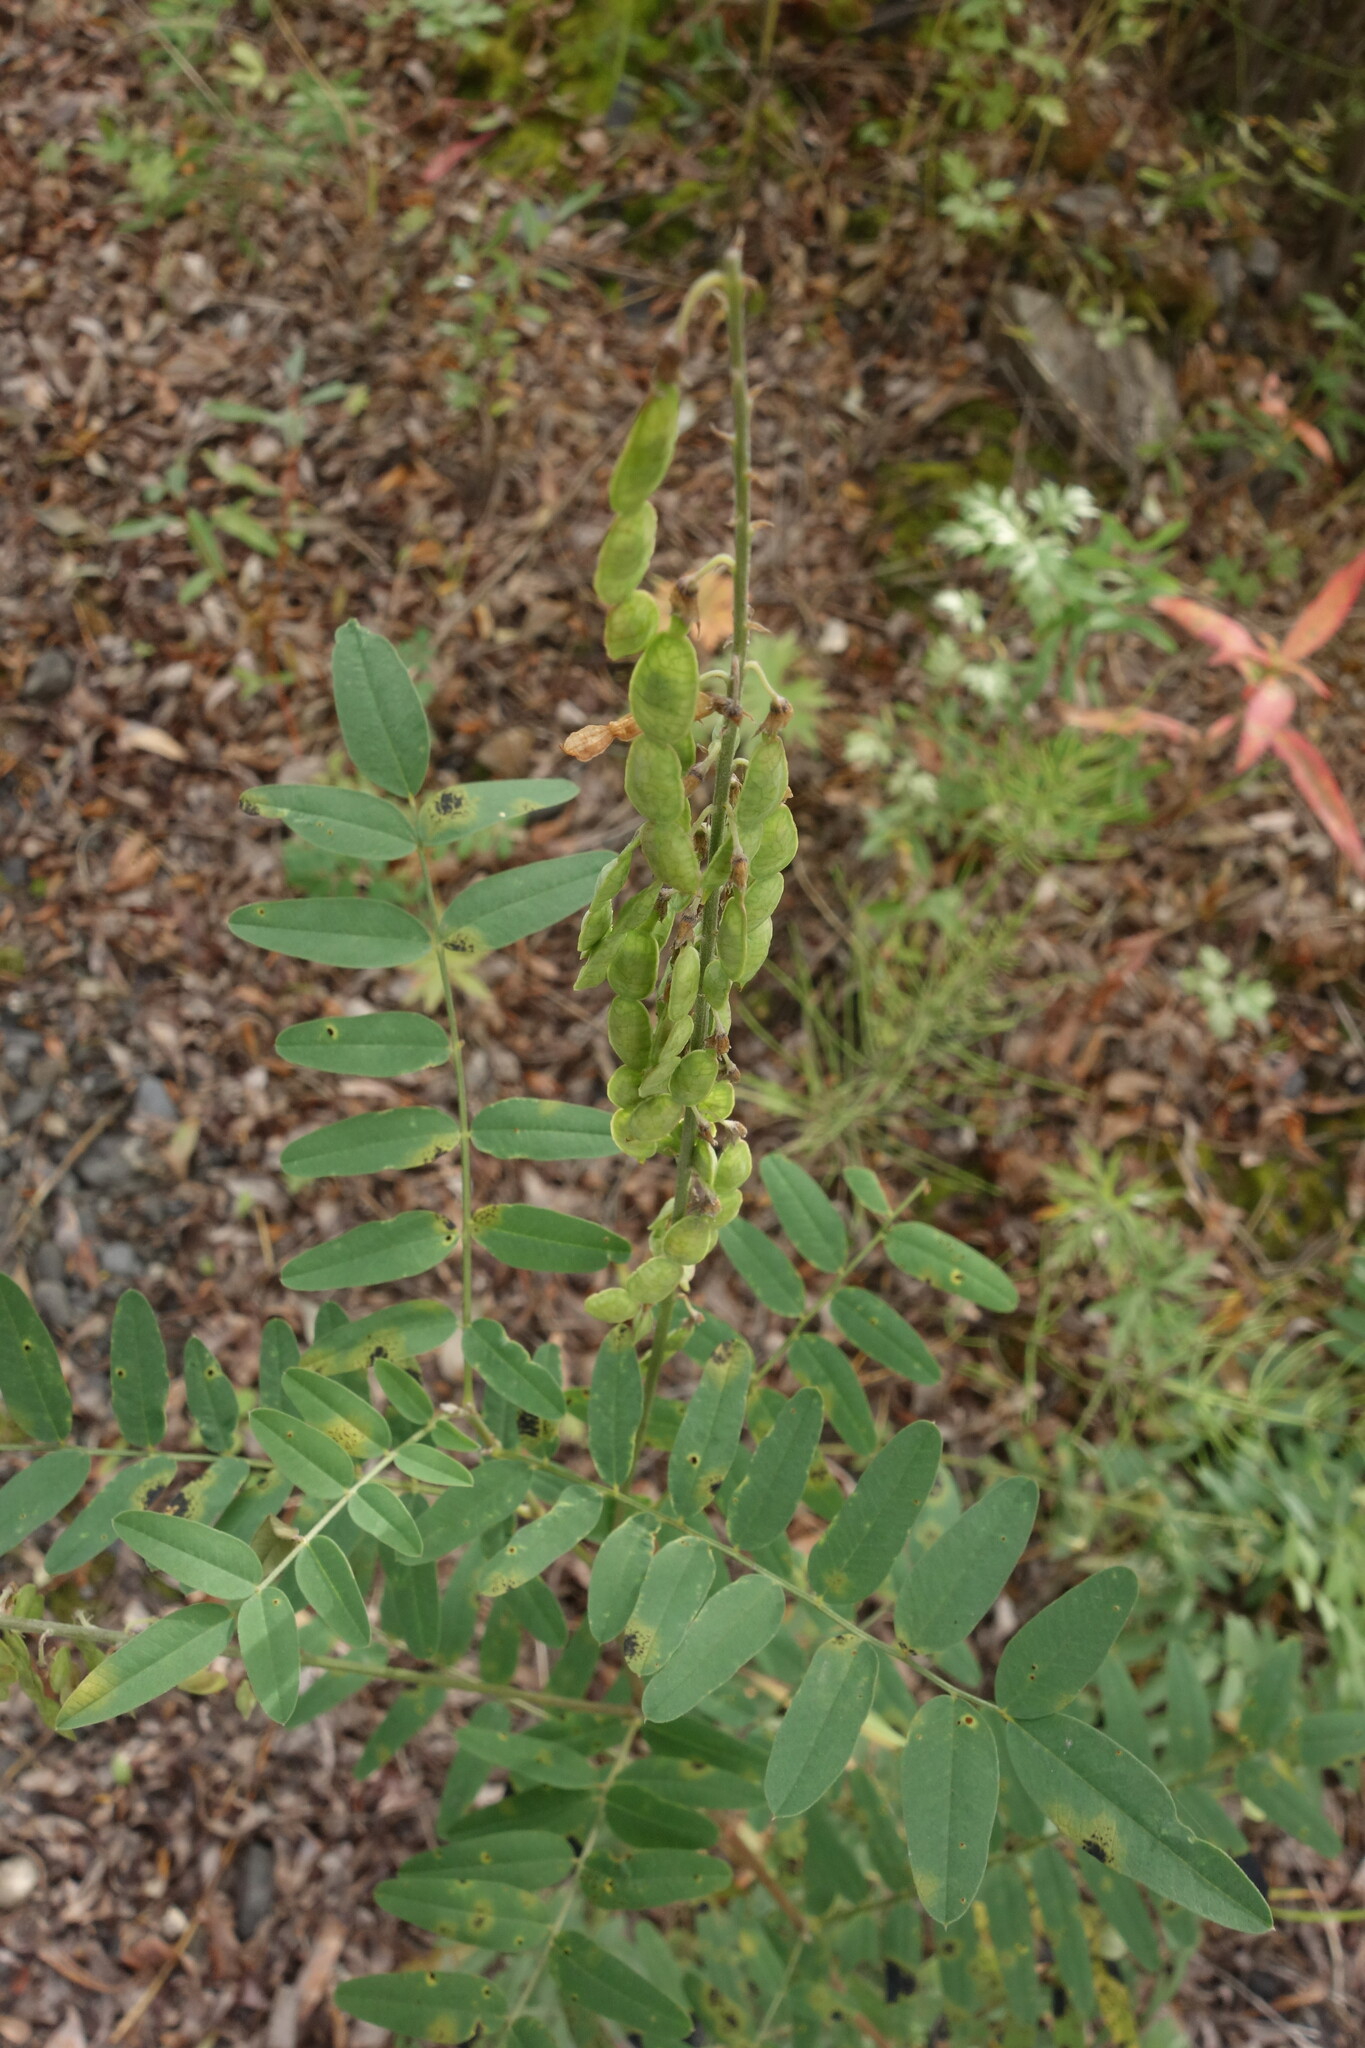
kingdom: Plantae
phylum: Tracheophyta
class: Magnoliopsida
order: Fabales
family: Fabaceae
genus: Hedysarum
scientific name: Hedysarum alpinum
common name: Alpine sweet-vetch
